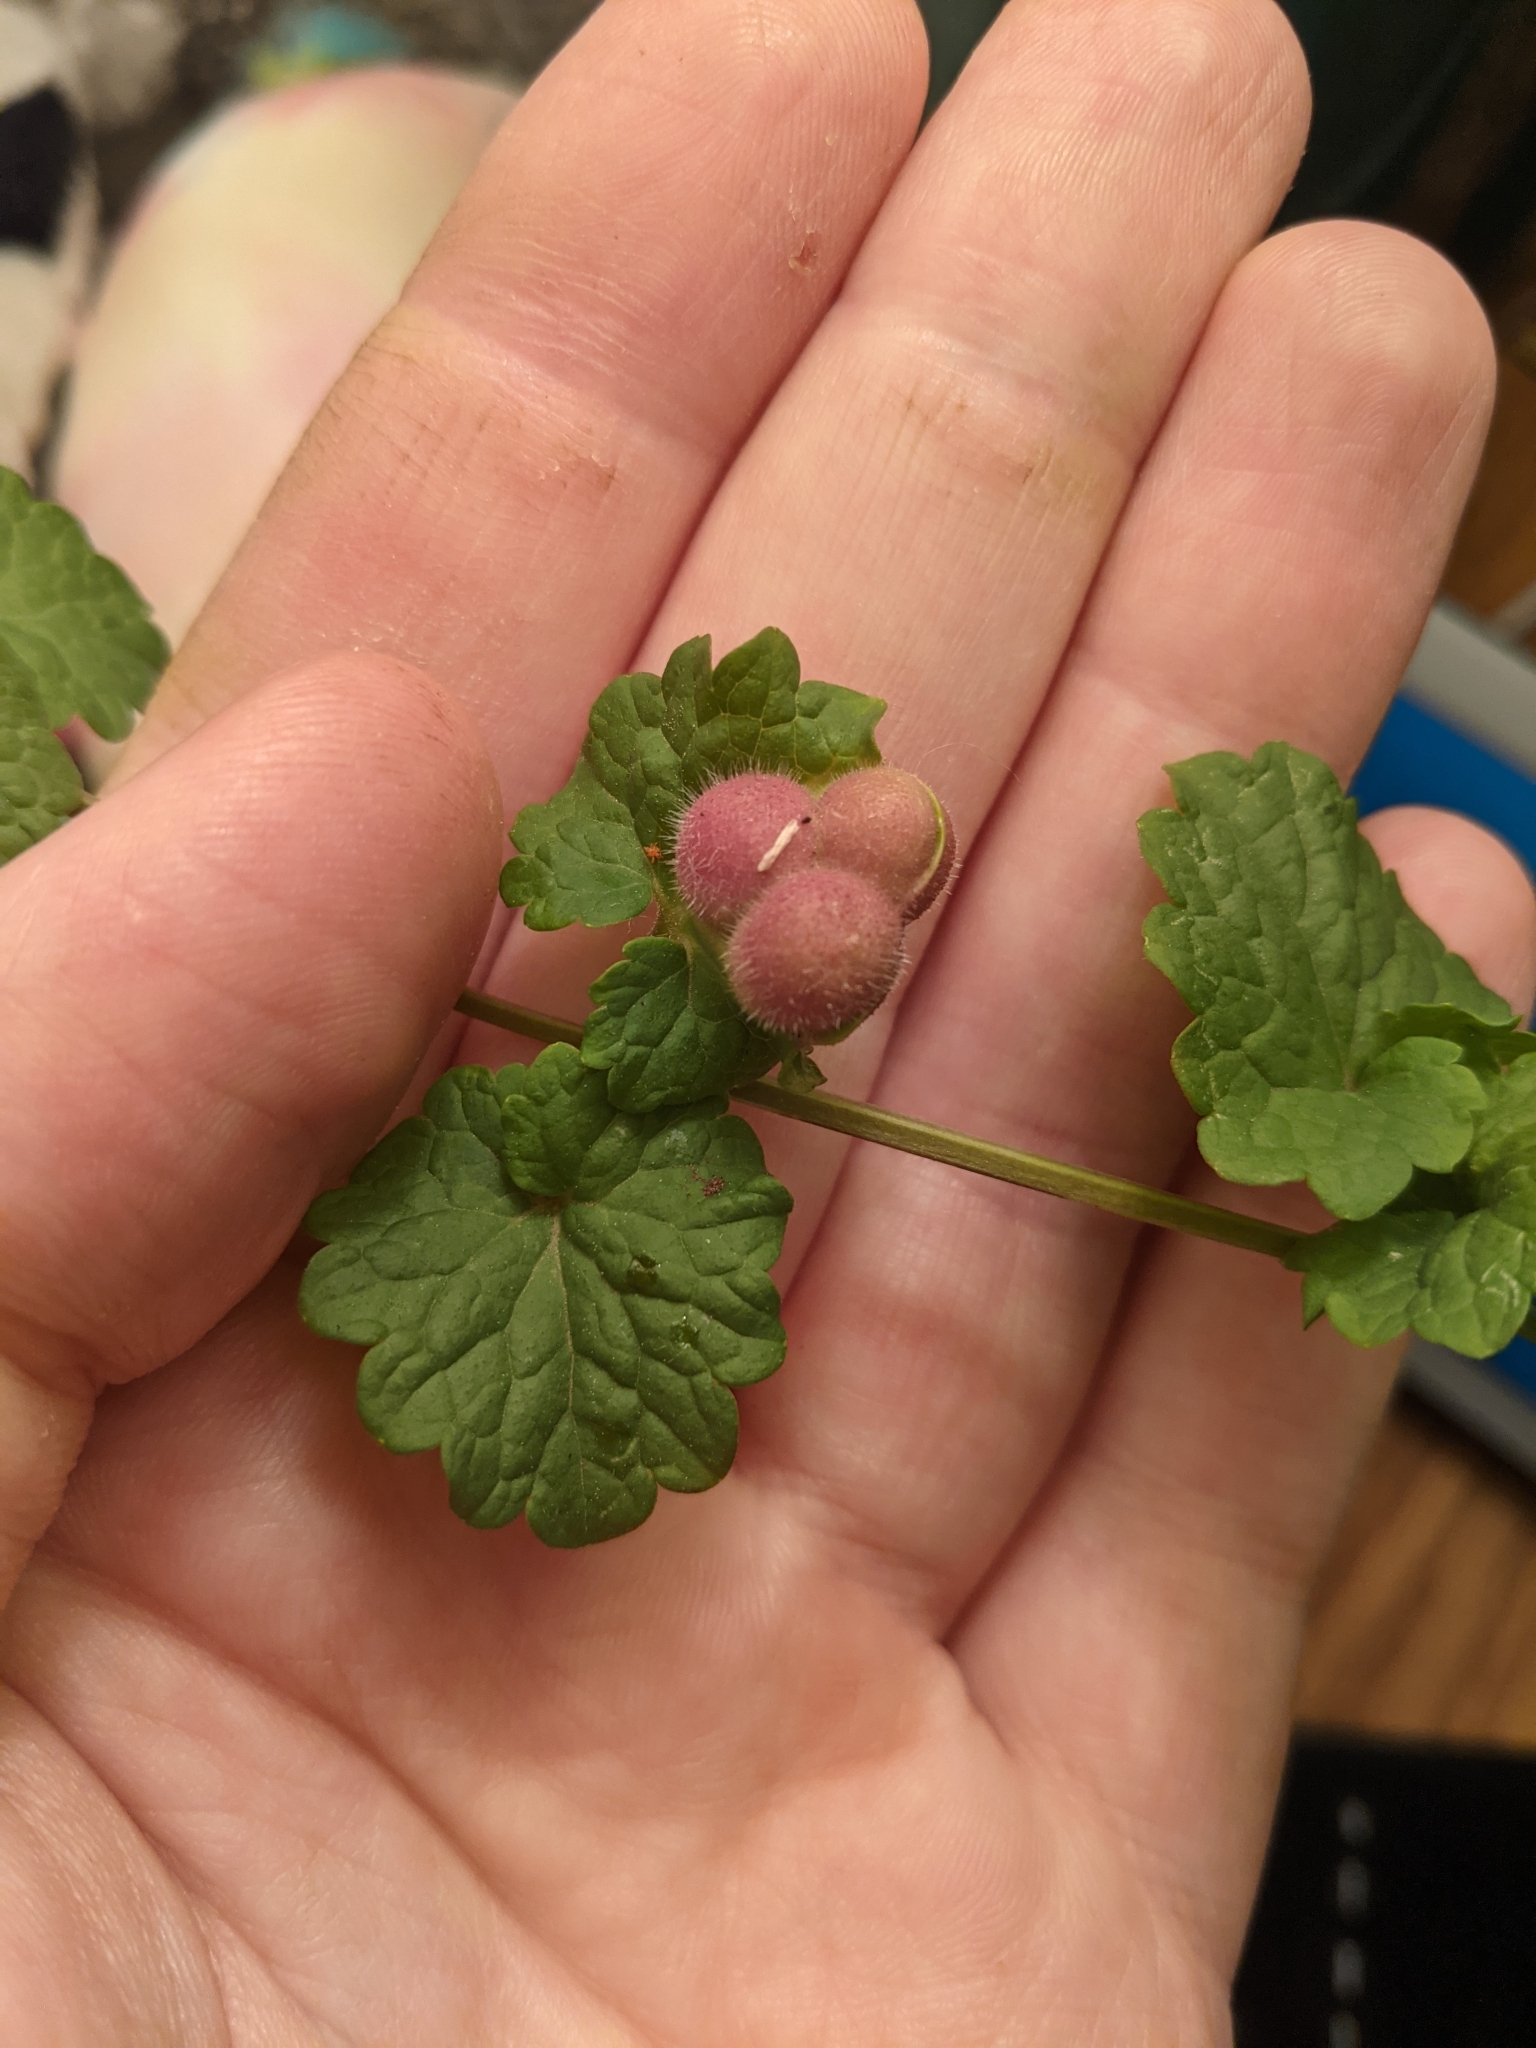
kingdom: Animalia
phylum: Arthropoda
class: Insecta
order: Hymenoptera
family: Cynipidae
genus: Liposthenes
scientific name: Liposthenes glechomae
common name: Gall wasp
